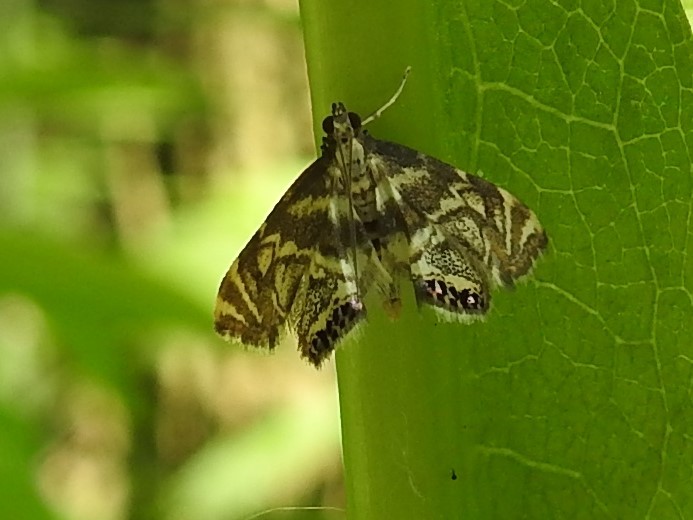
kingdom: Animalia
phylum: Arthropoda
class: Insecta
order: Lepidoptera
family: Crambidae
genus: Petrophila
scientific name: Petrophila canadensis
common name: Canadian petrophila
